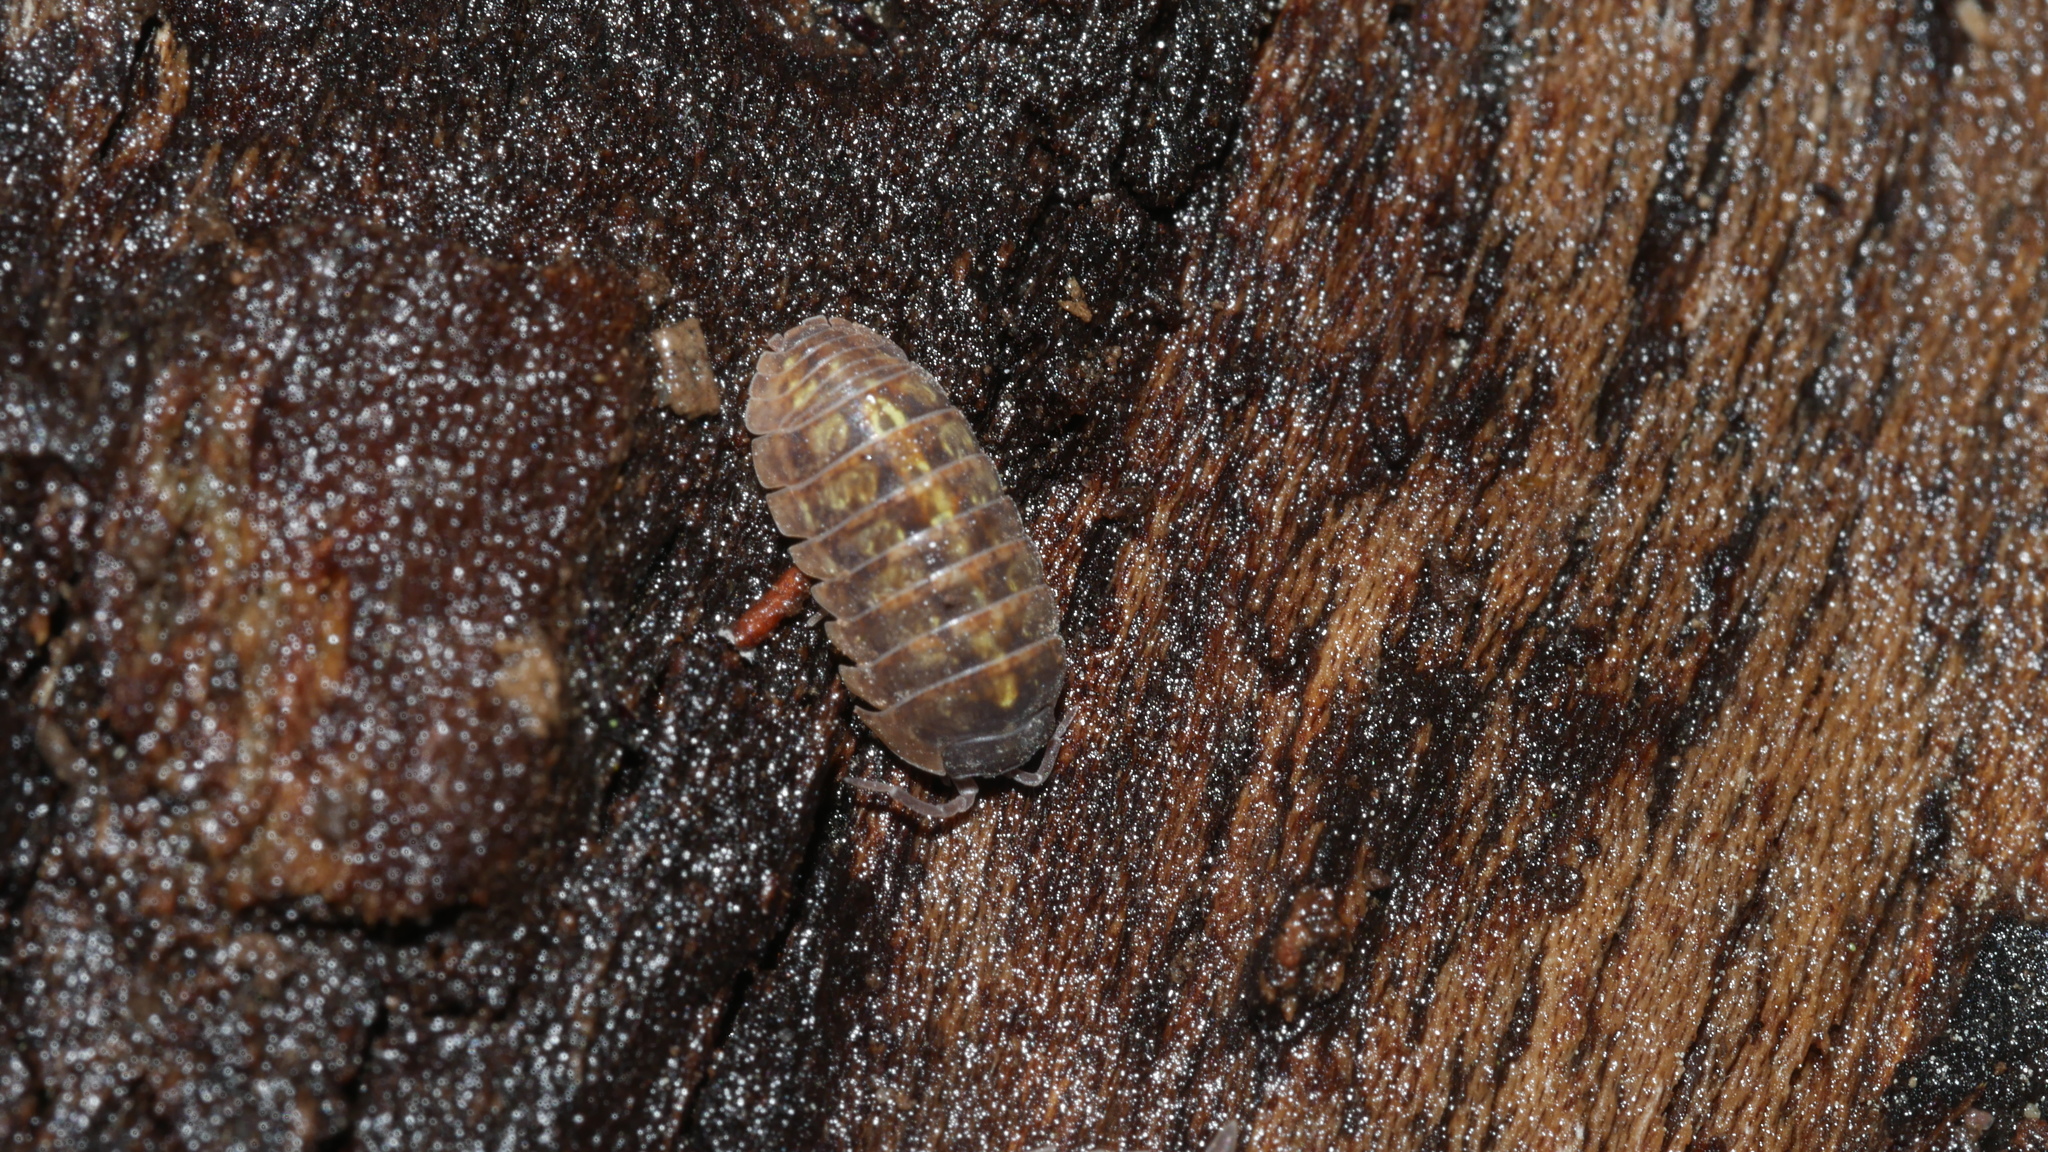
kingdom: Animalia
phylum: Arthropoda
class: Malacostraca
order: Isopoda
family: Armadillidiidae
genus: Armadillidium
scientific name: Armadillidium vulgare
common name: Common pill woodlouse
